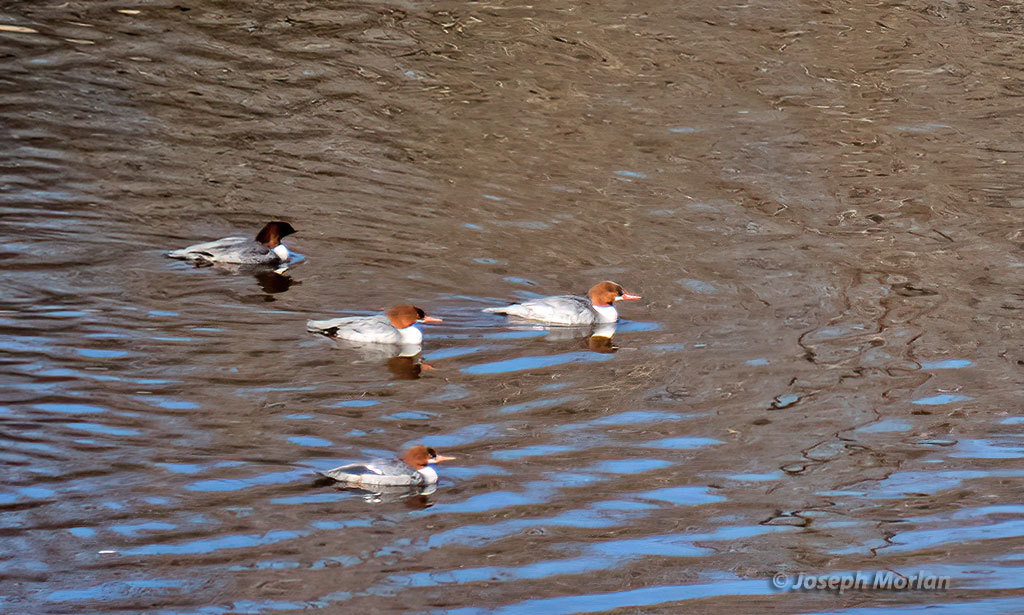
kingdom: Animalia
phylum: Chordata
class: Aves
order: Anseriformes
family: Anatidae
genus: Mergus
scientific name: Mergus merganser
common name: Common merganser
